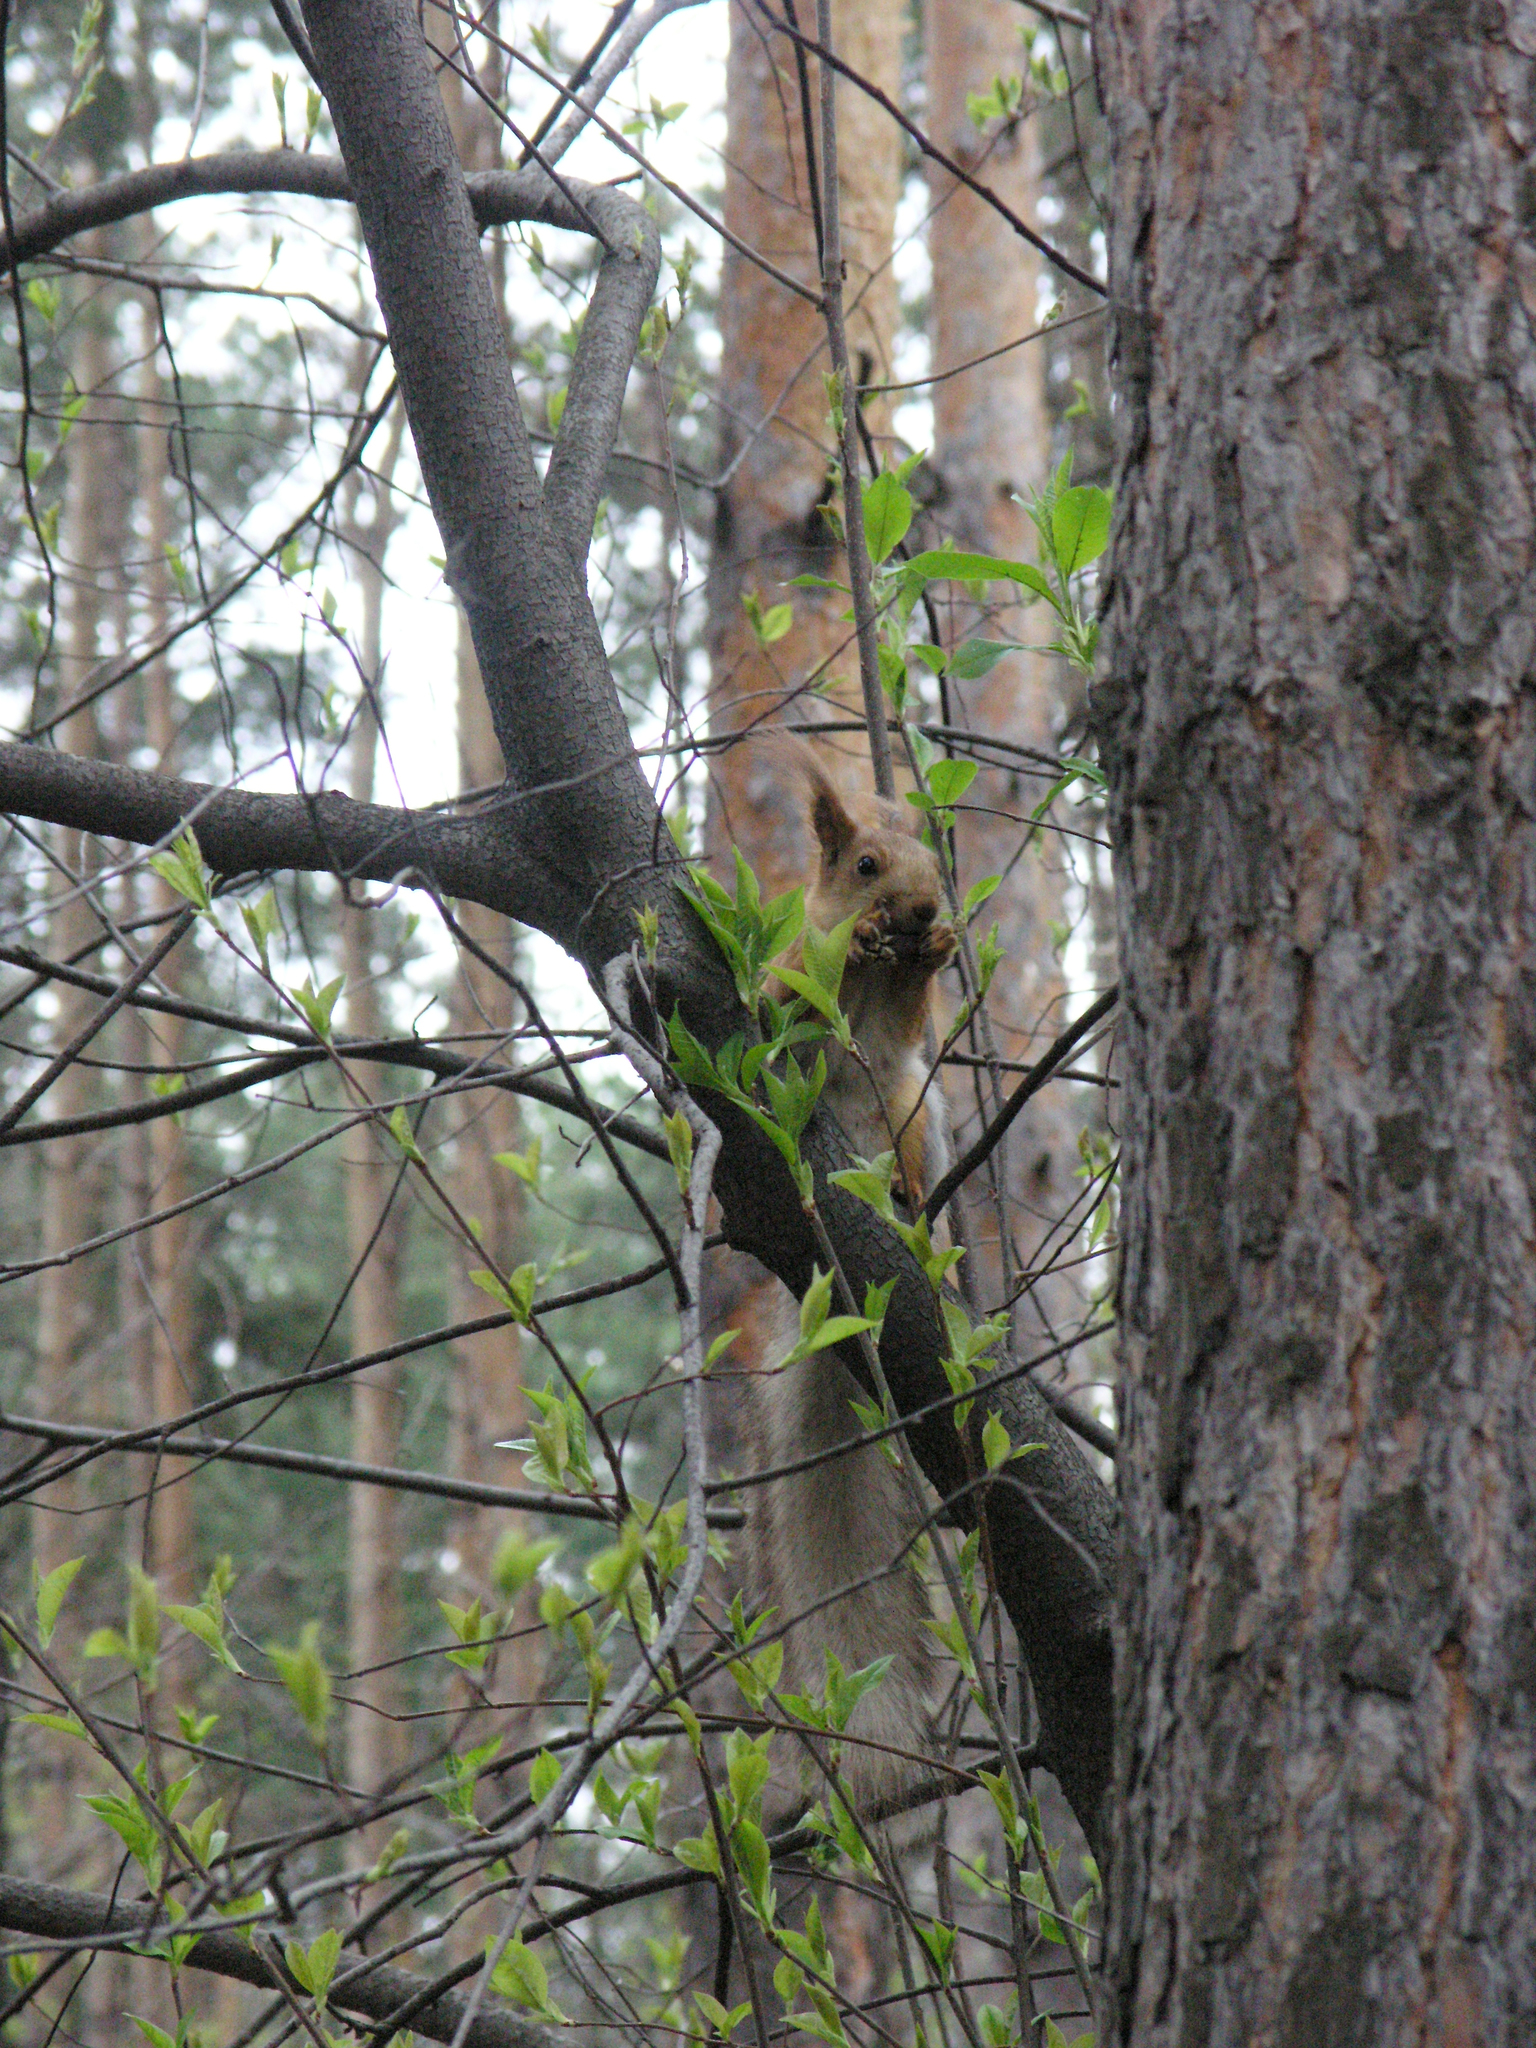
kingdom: Plantae
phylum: Tracheophyta
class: Magnoliopsida
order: Rosales
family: Rosaceae
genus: Prunus
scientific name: Prunus padus
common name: Bird cherry
